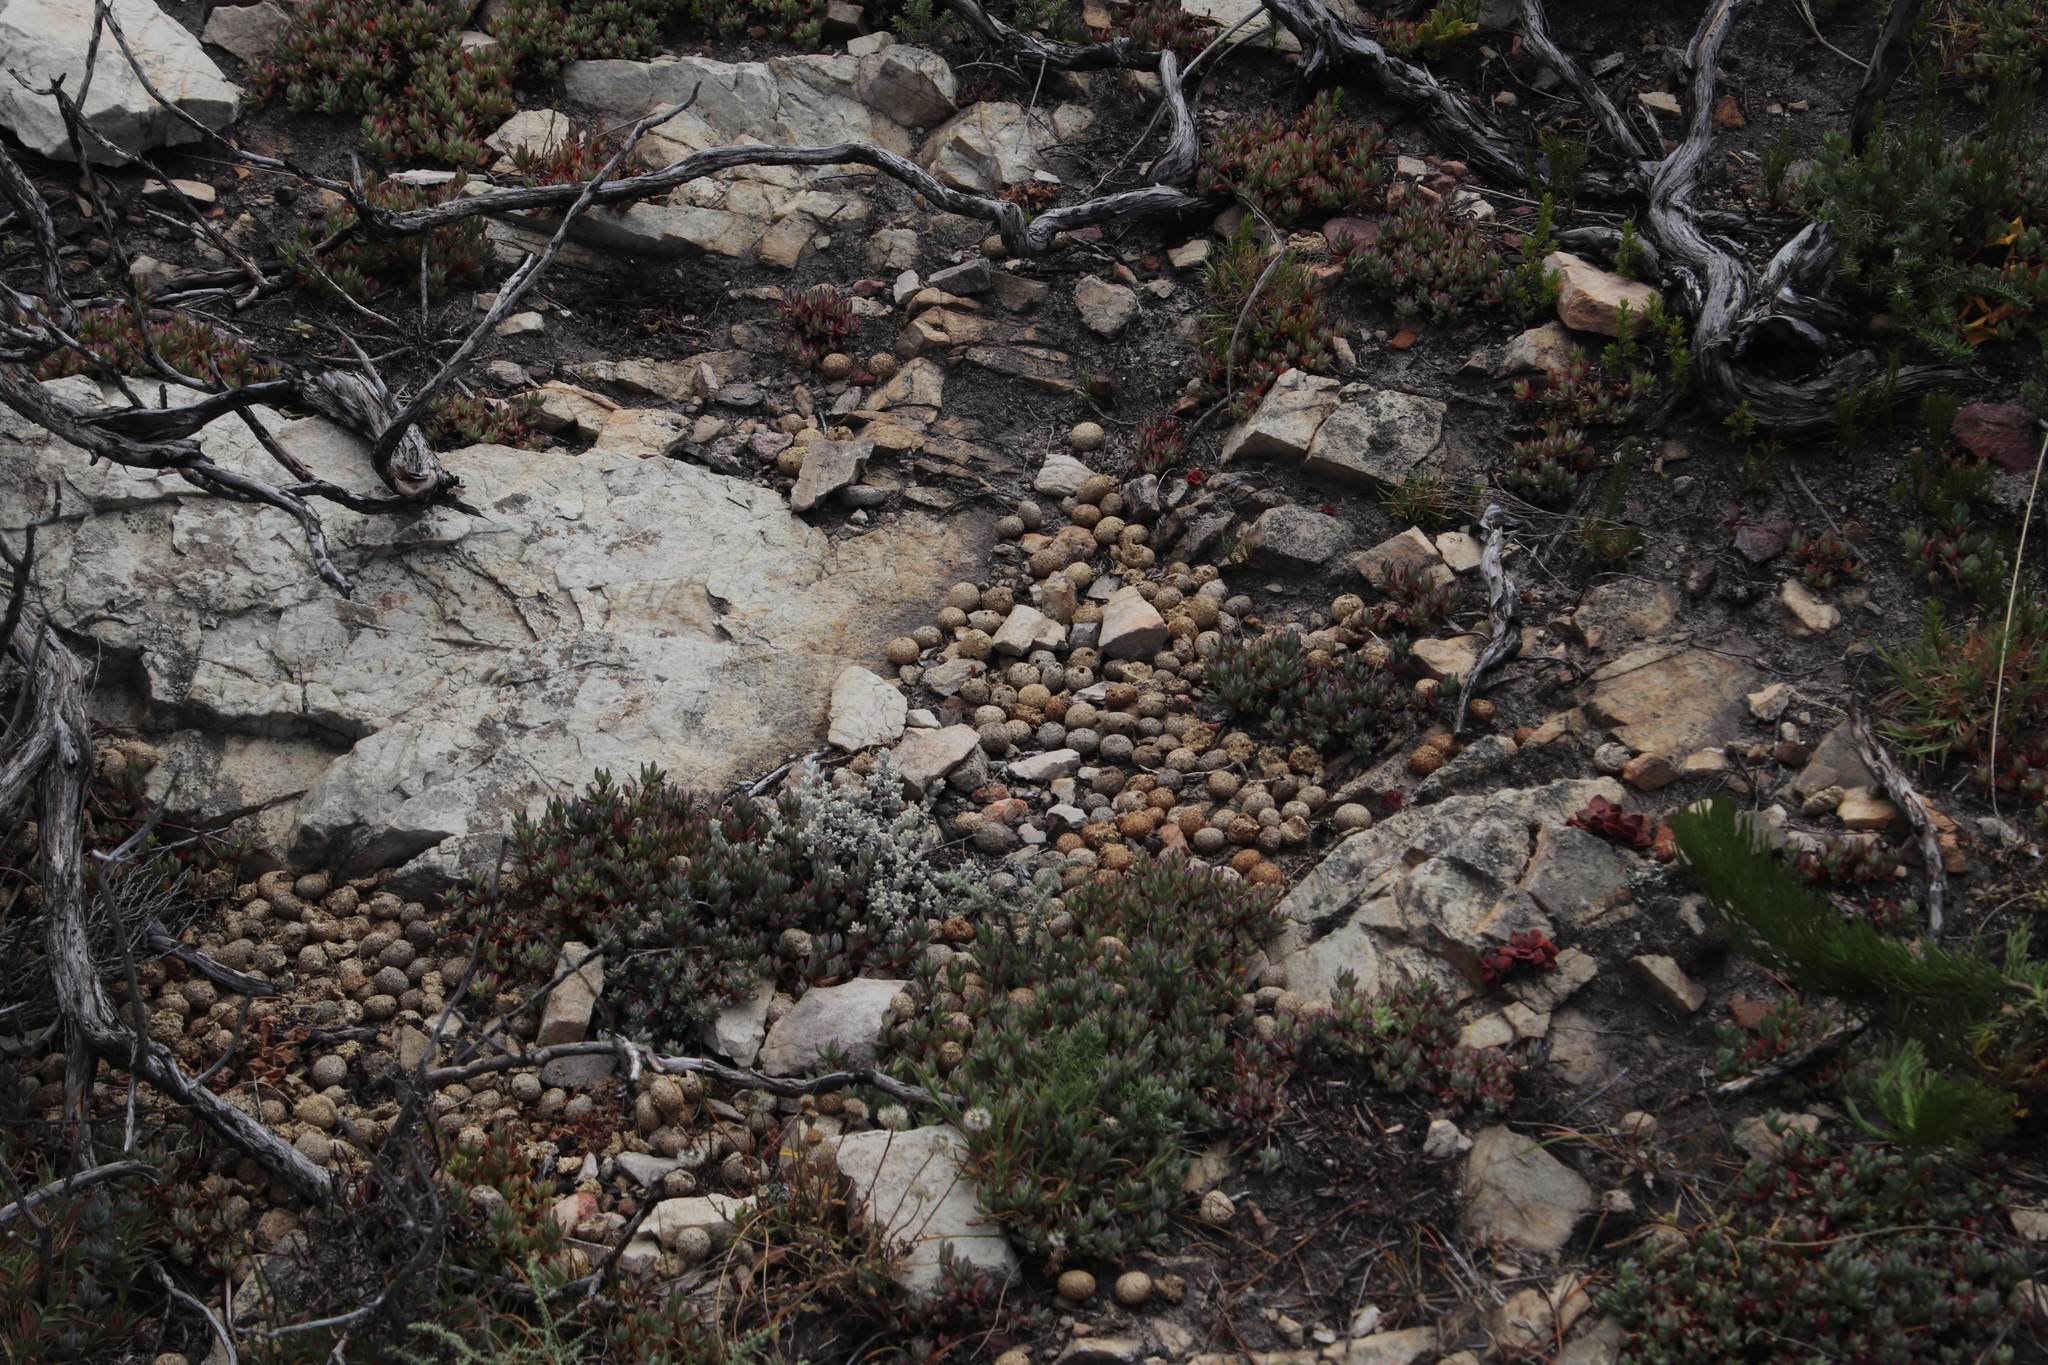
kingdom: Animalia
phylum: Chordata
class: Mammalia
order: Lagomorpha
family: Leporidae
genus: Pronolagus
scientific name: Pronolagus saundersiae
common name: Hewitt's red rock hare
